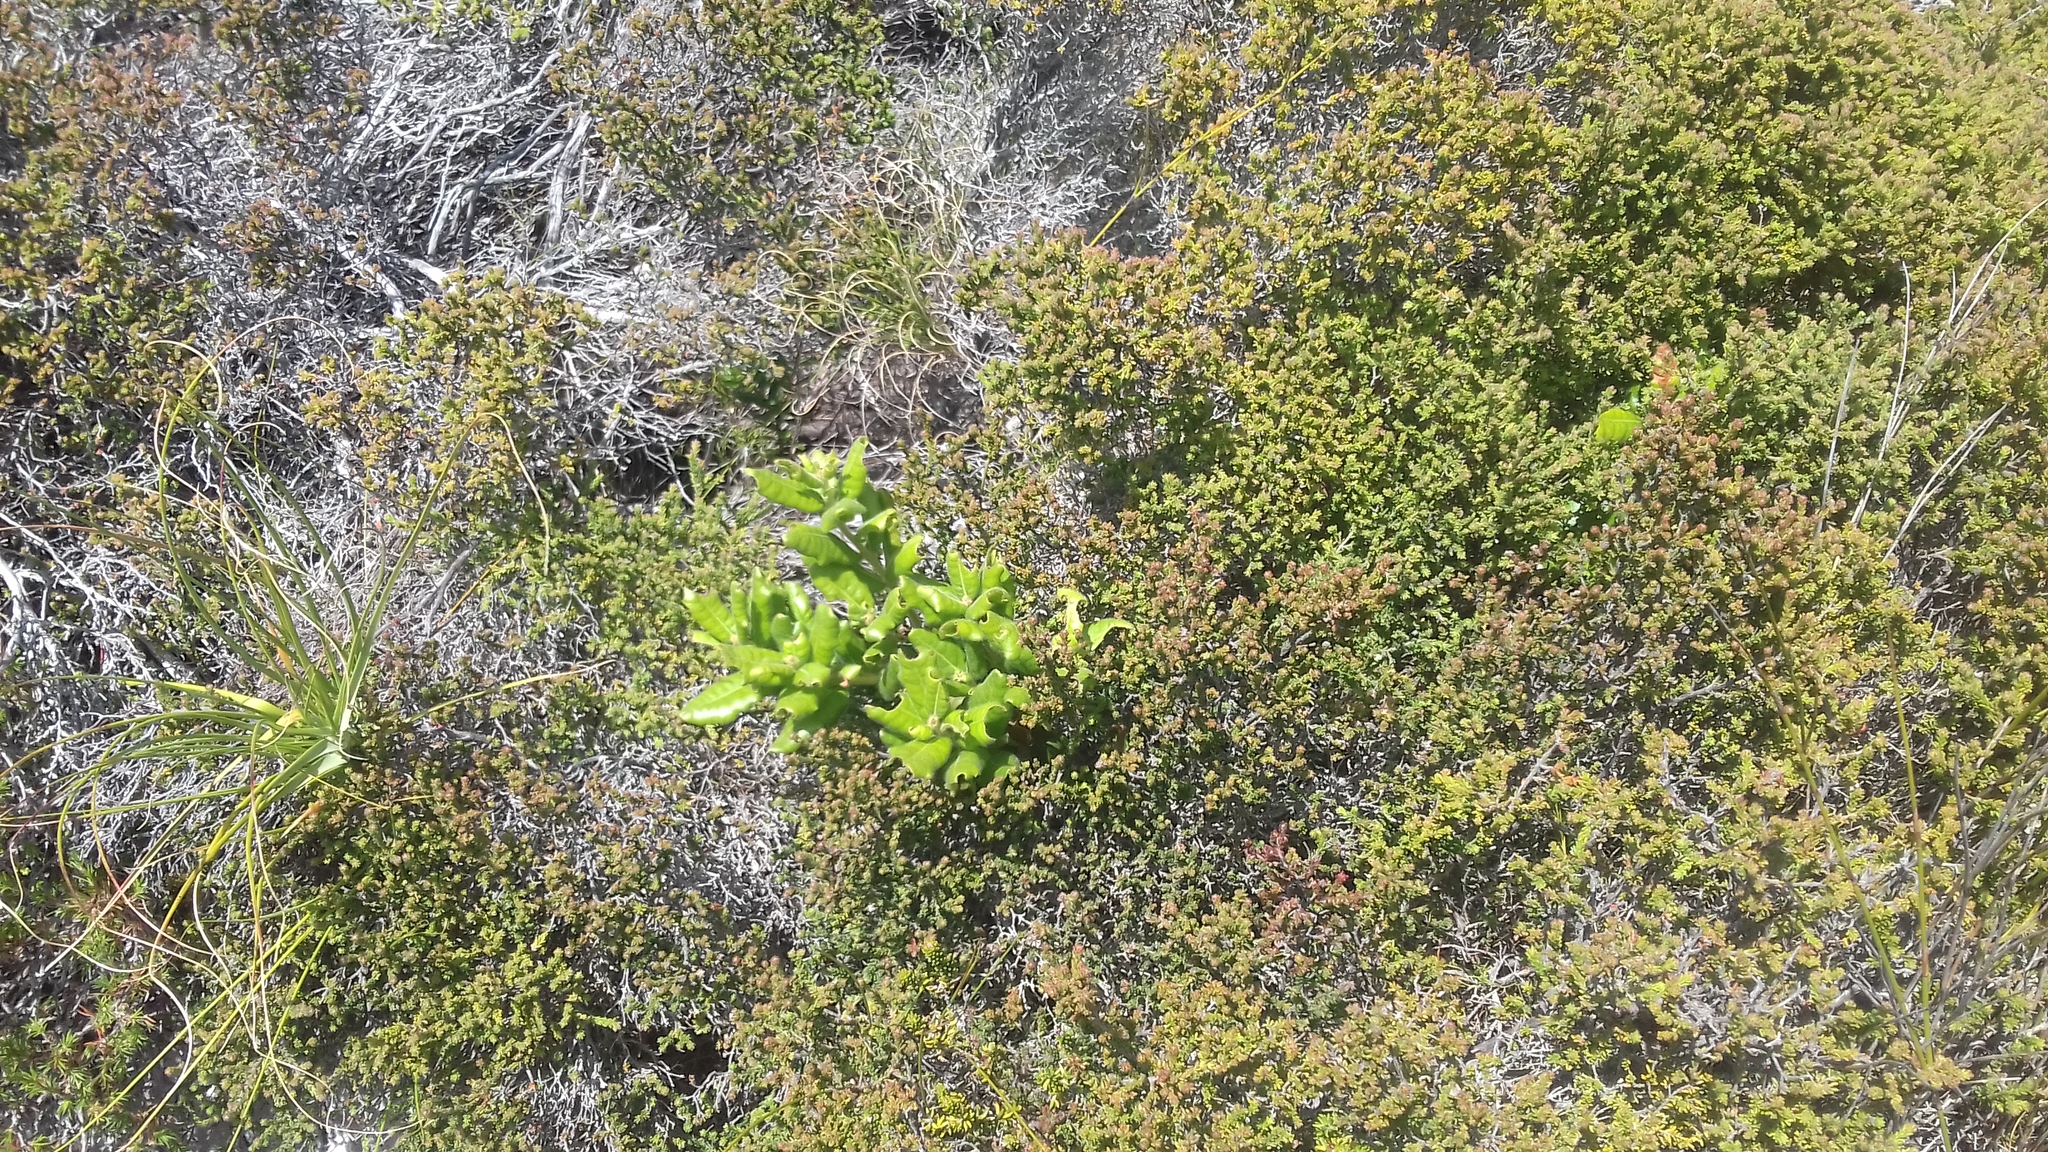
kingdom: Plantae
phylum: Tracheophyta
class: Magnoliopsida
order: Fagales
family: Myricaceae
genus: Morella
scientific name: Morella kraussiana
